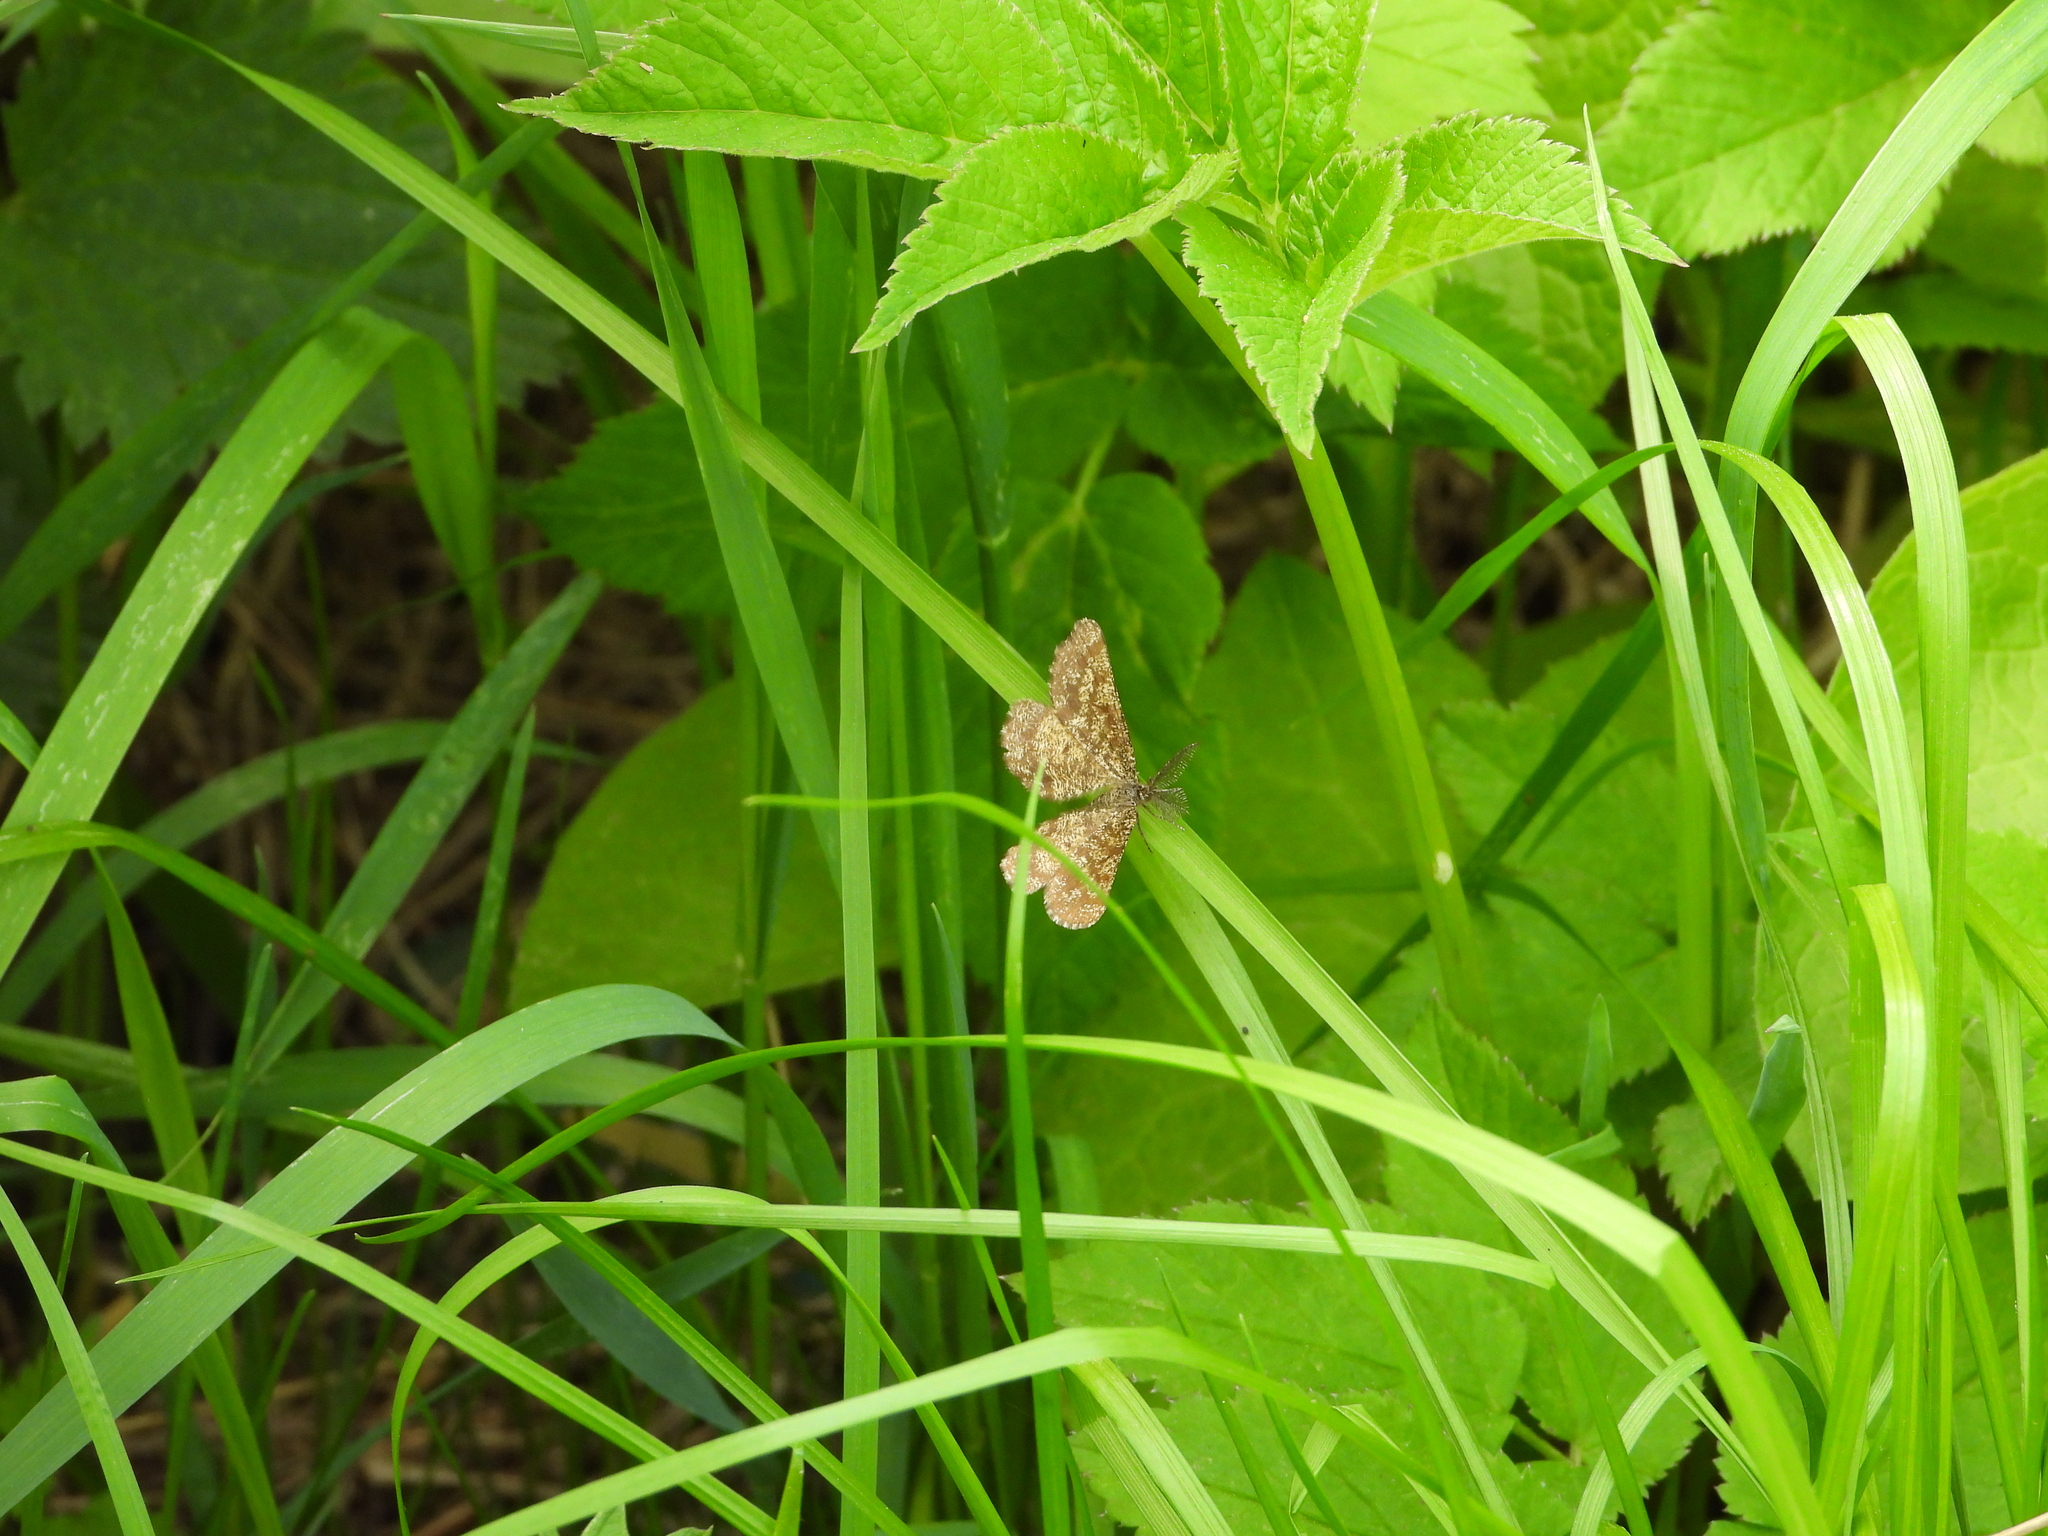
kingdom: Animalia
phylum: Arthropoda
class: Insecta
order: Lepidoptera
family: Geometridae
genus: Ematurga
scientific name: Ematurga atomaria
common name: Common heath
